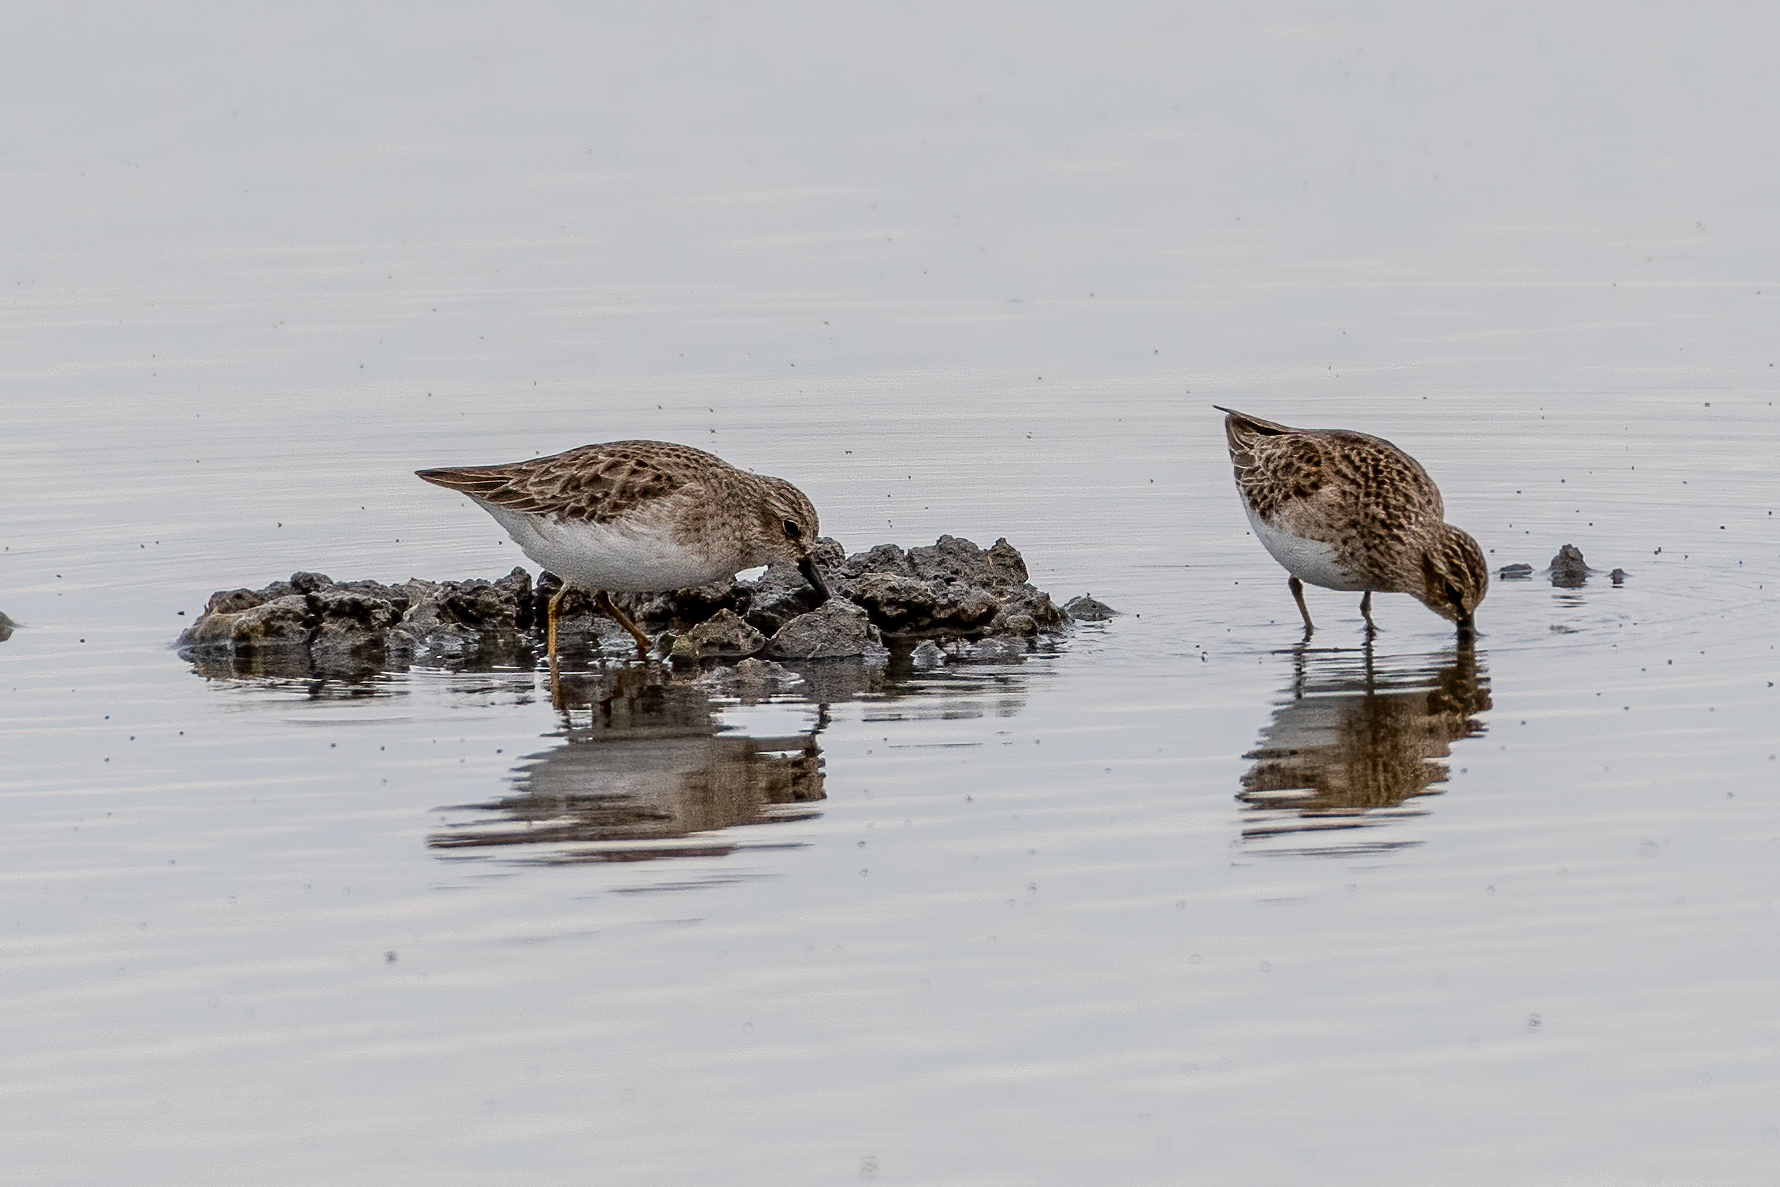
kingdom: Animalia
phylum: Chordata
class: Aves
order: Charadriiformes
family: Scolopacidae
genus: Calidris
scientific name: Calidris minutilla
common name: Least sandpiper
